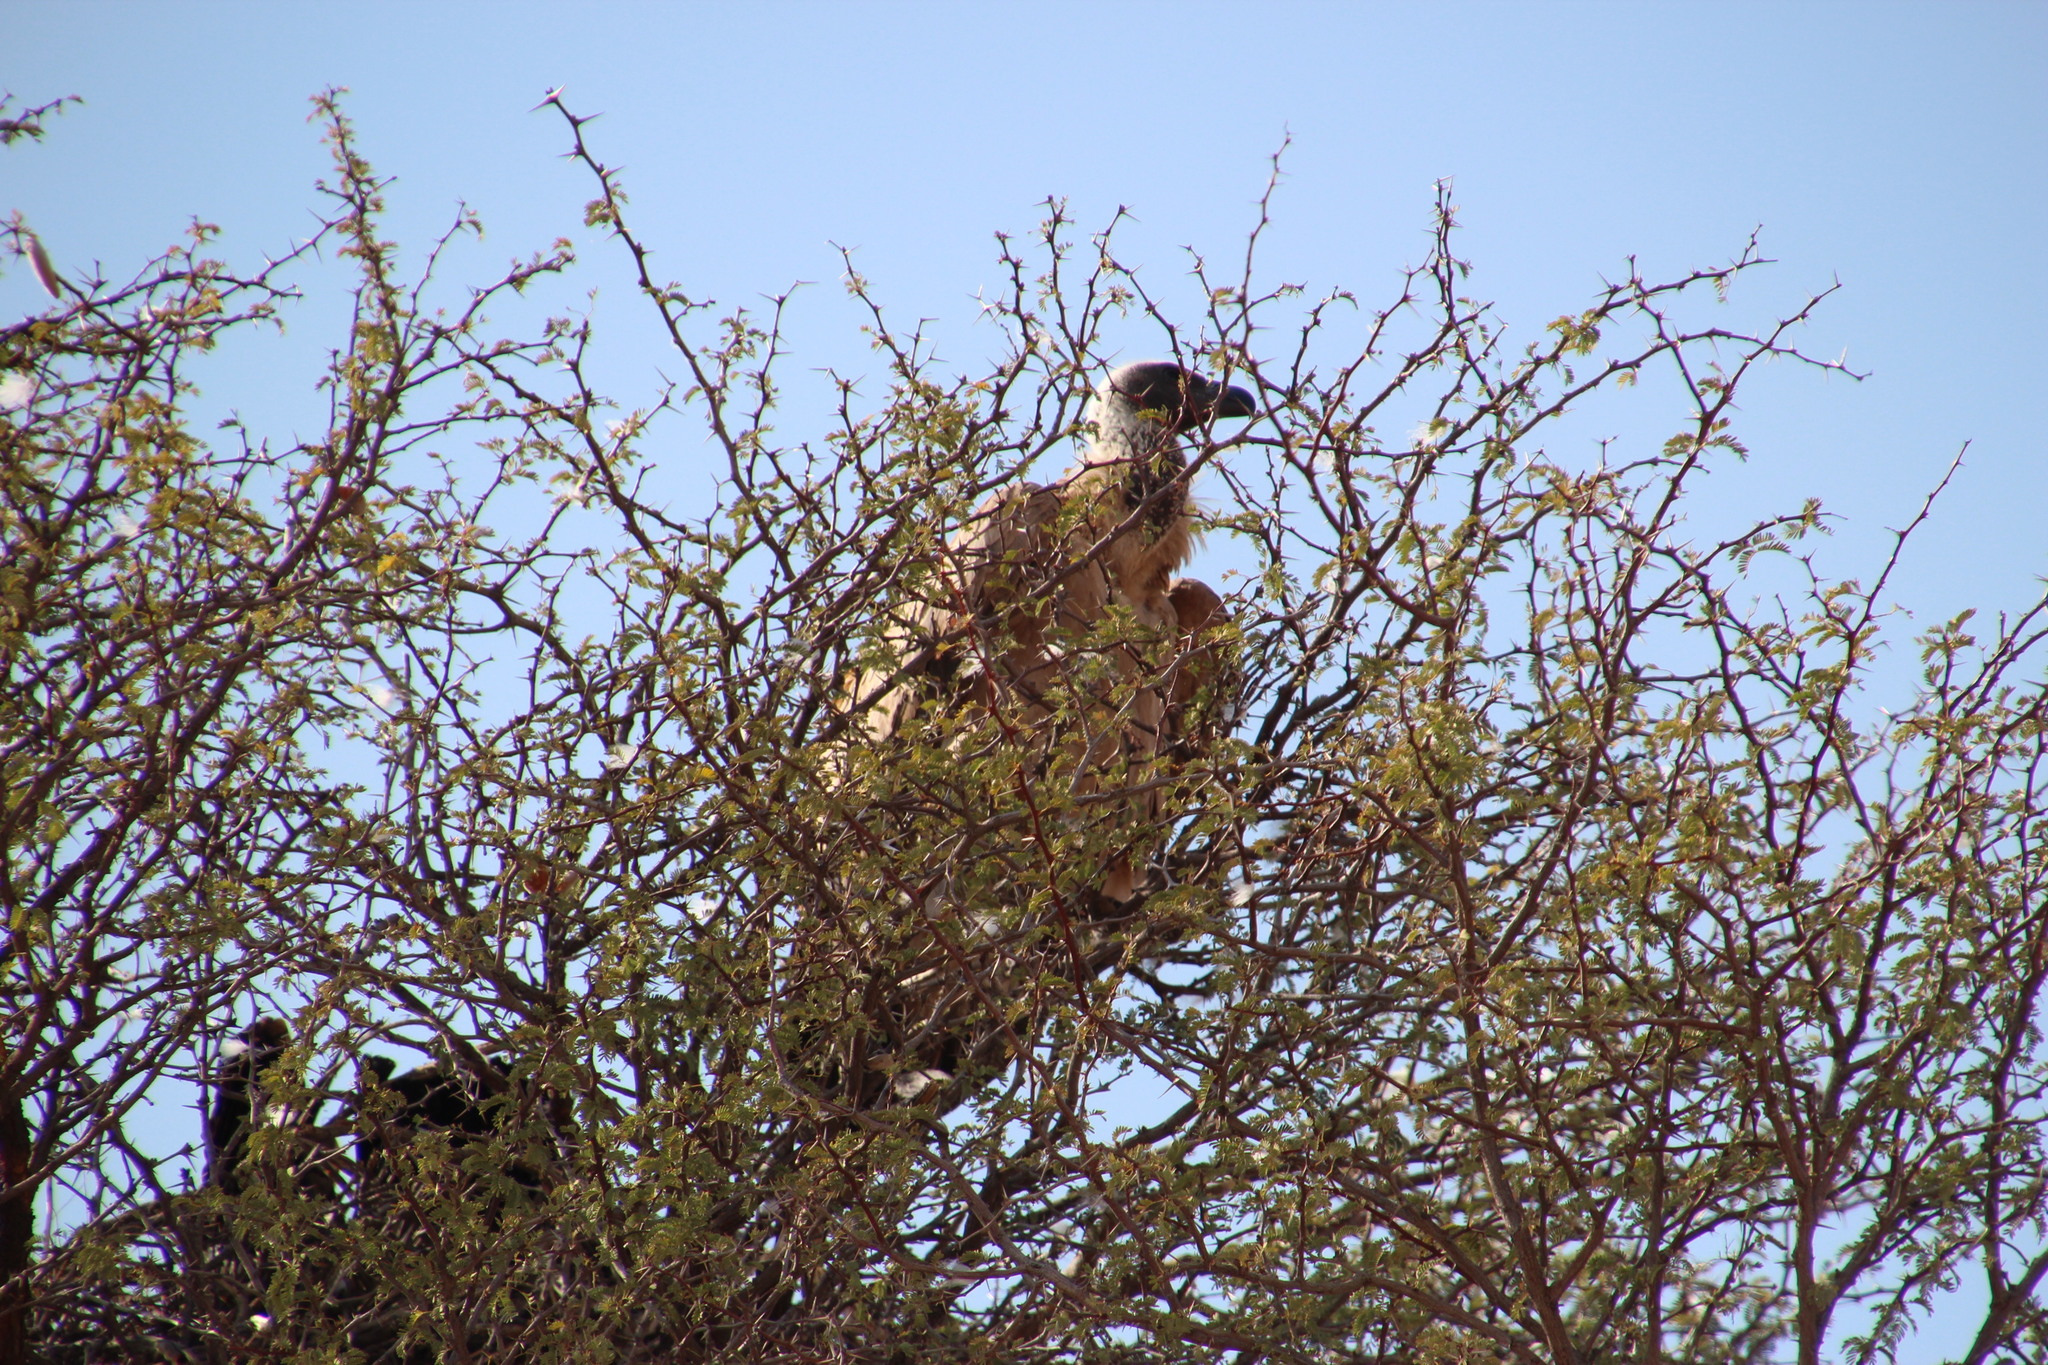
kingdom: Animalia
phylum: Chordata
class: Aves
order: Accipitriformes
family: Accipitridae
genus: Gyps
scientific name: Gyps africanus
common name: White-backed vulture
